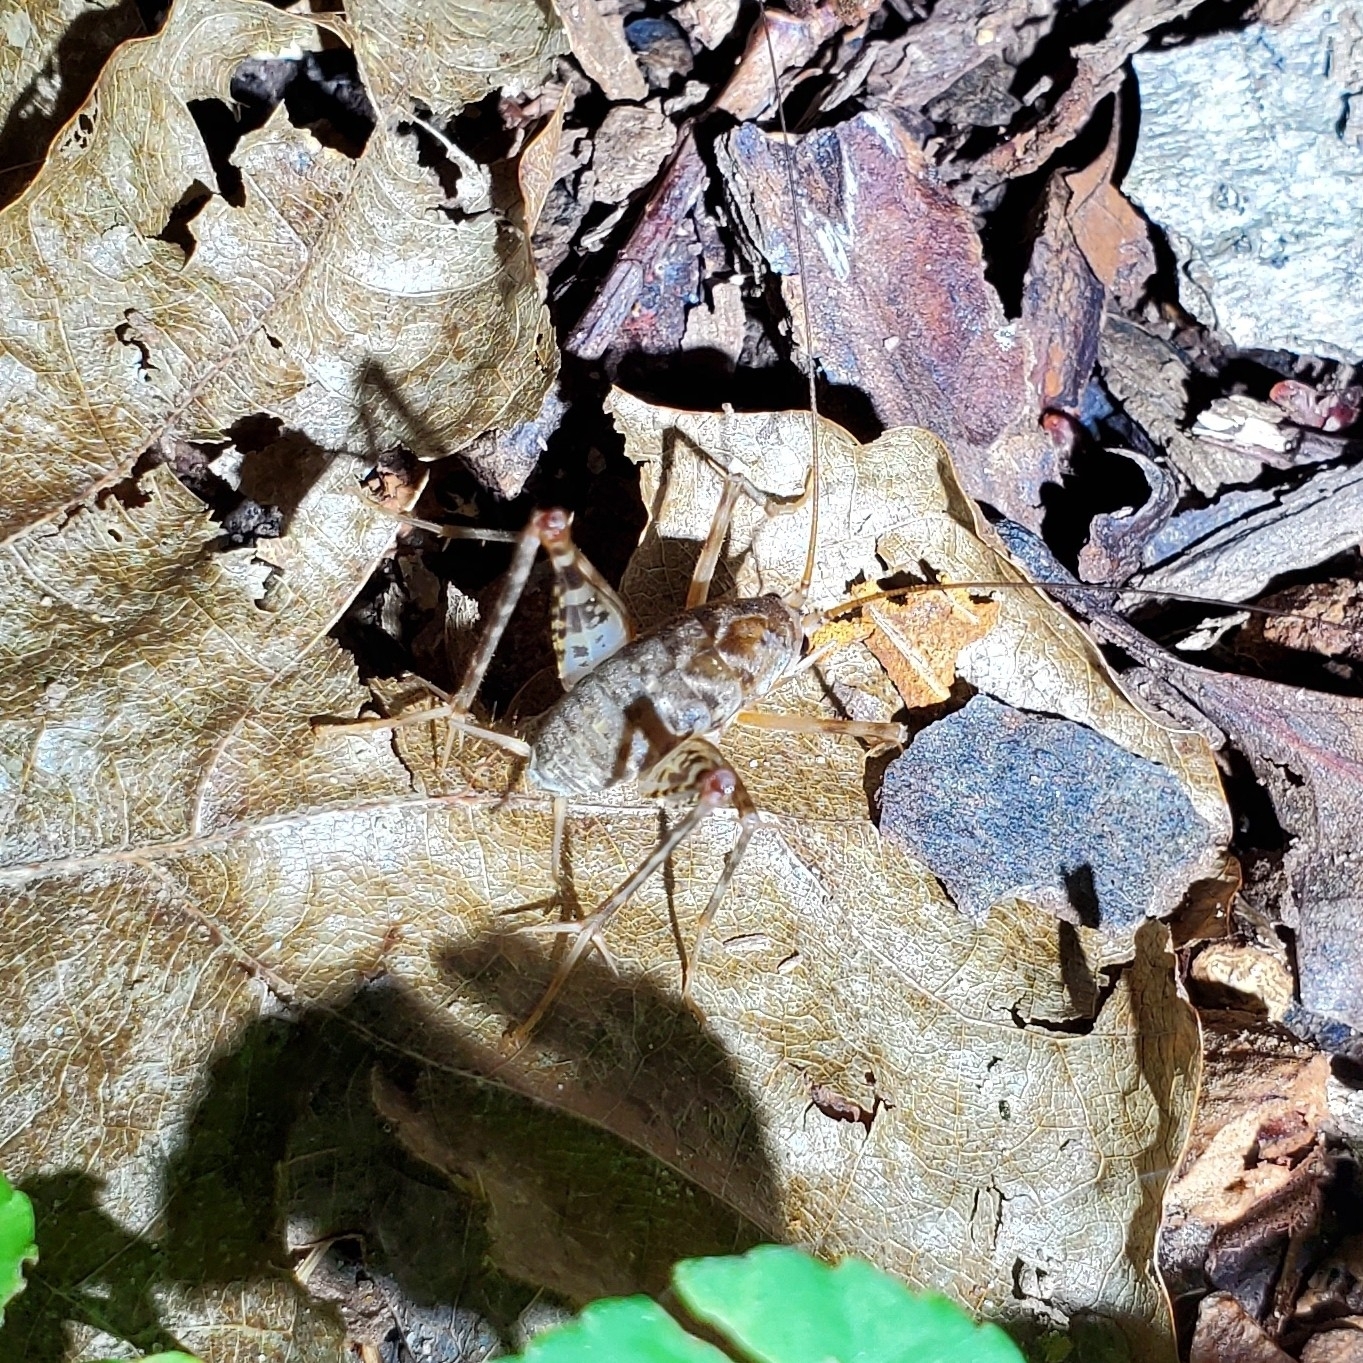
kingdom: Animalia
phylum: Arthropoda
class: Insecta
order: Orthoptera
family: Rhaphidophoridae
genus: Tachycines
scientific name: Tachycines asynamorus
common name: Greenhouse camel cricket
